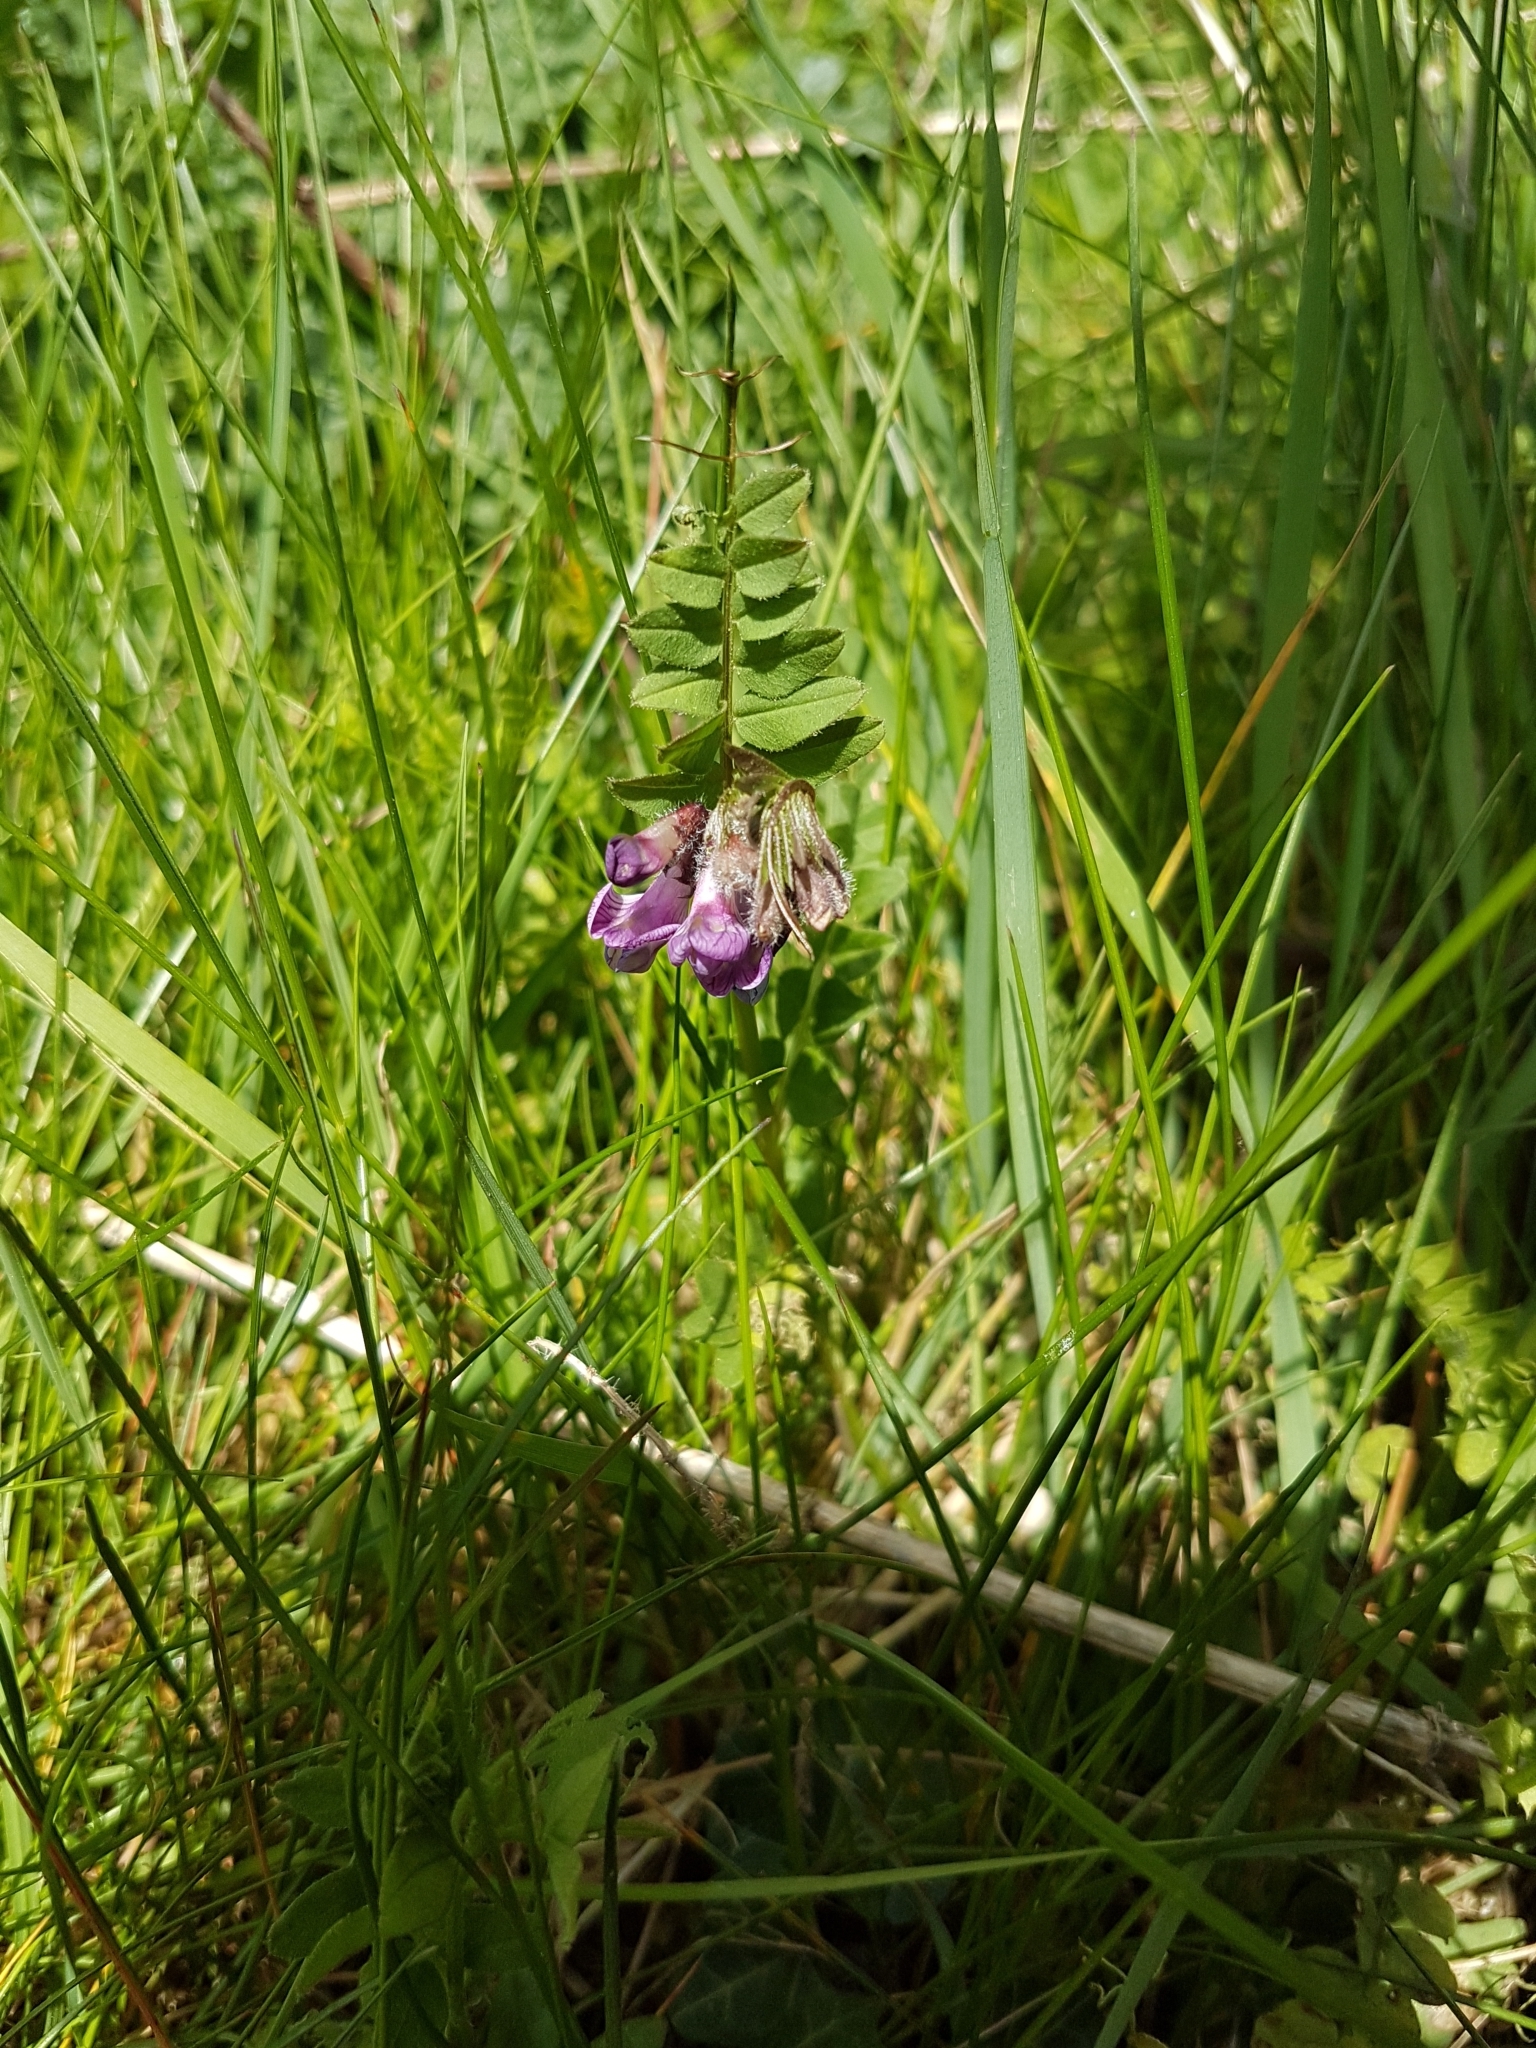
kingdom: Plantae
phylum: Tracheophyta
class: Magnoliopsida
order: Fabales
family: Fabaceae
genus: Vicia
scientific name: Vicia sepium
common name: Bush vetch
